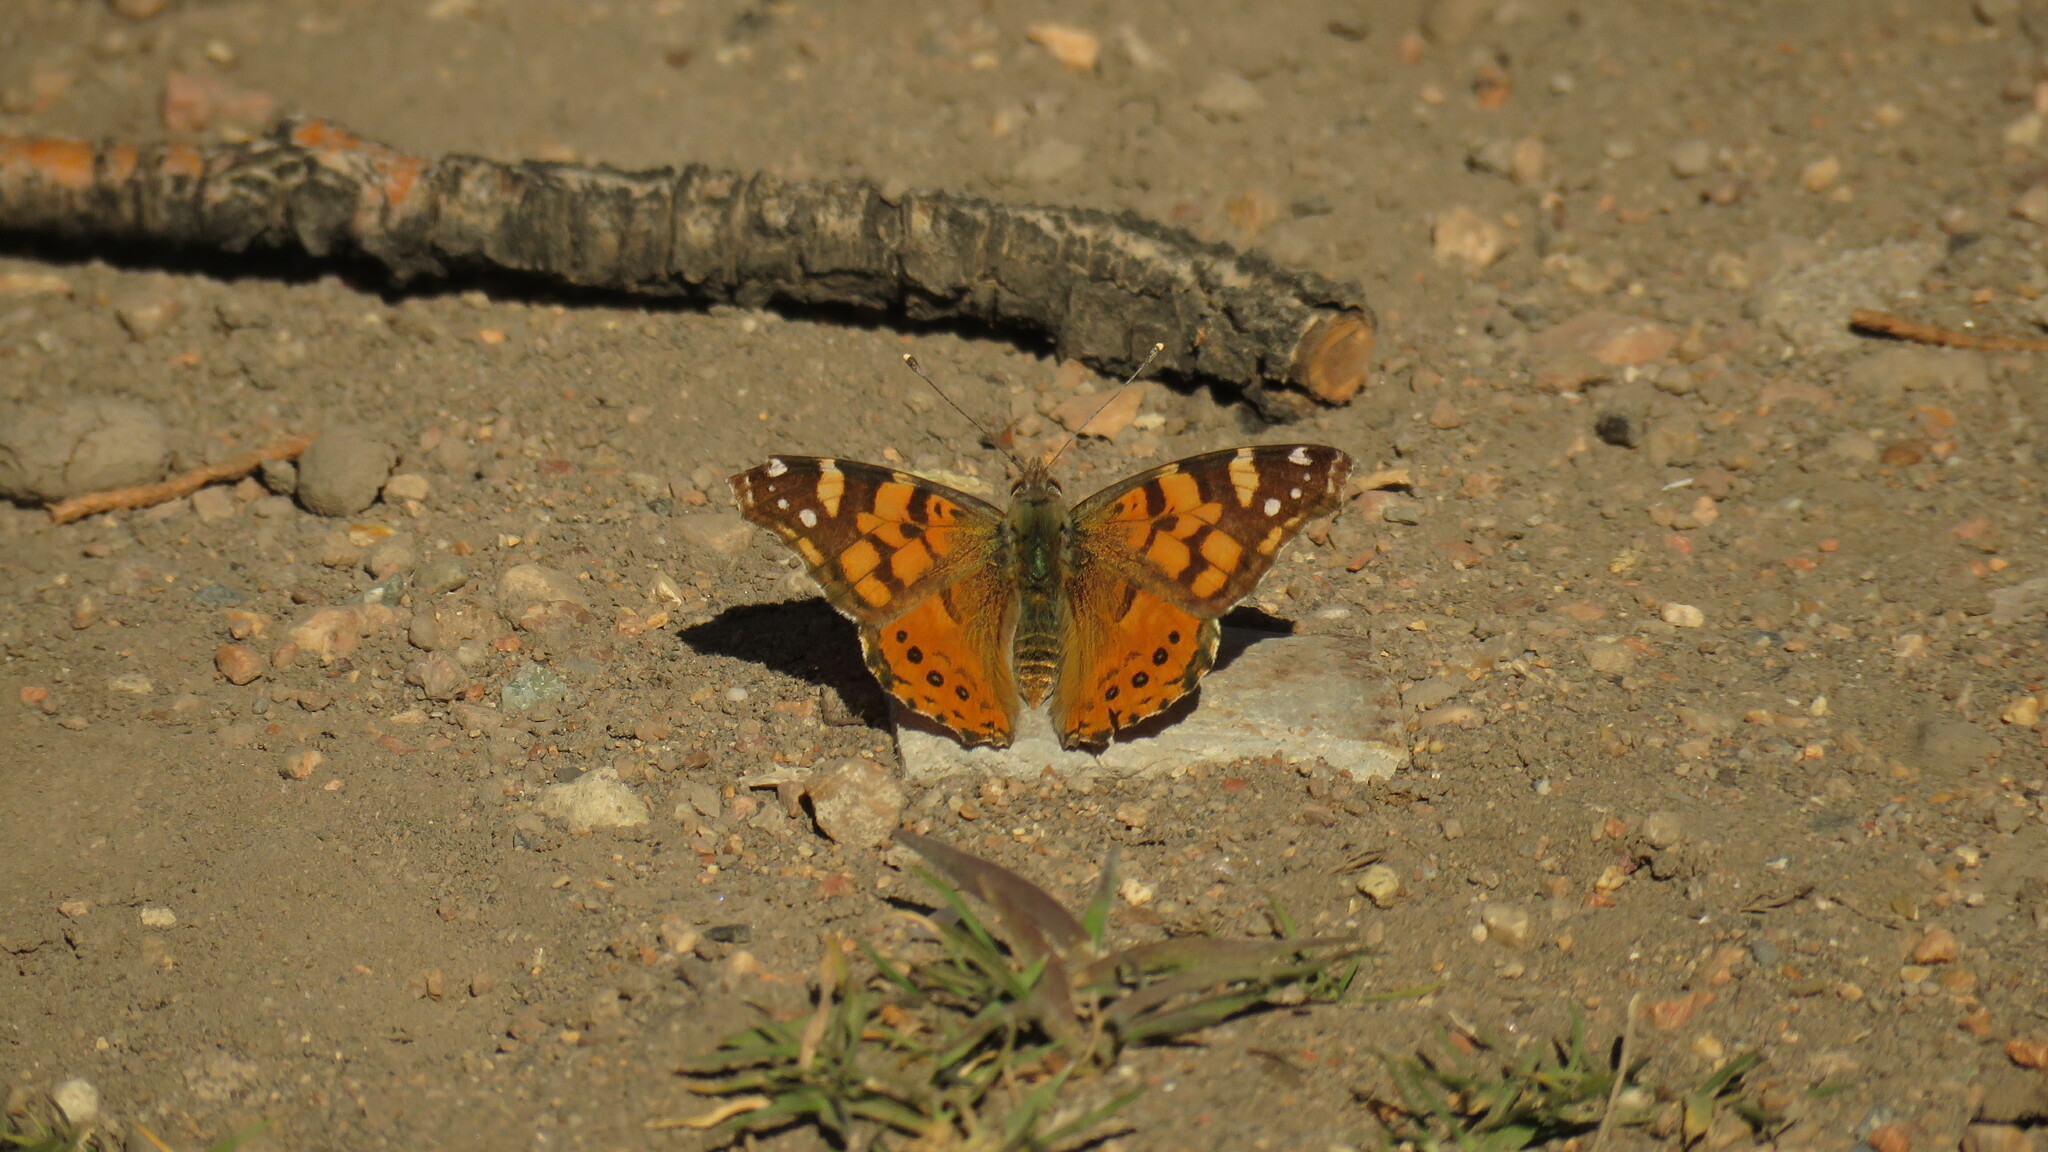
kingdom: Animalia
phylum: Arthropoda
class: Insecta
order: Lepidoptera
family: Nymphalidae
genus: Vanessa
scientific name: Vanessa carye
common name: Subtropical lady
